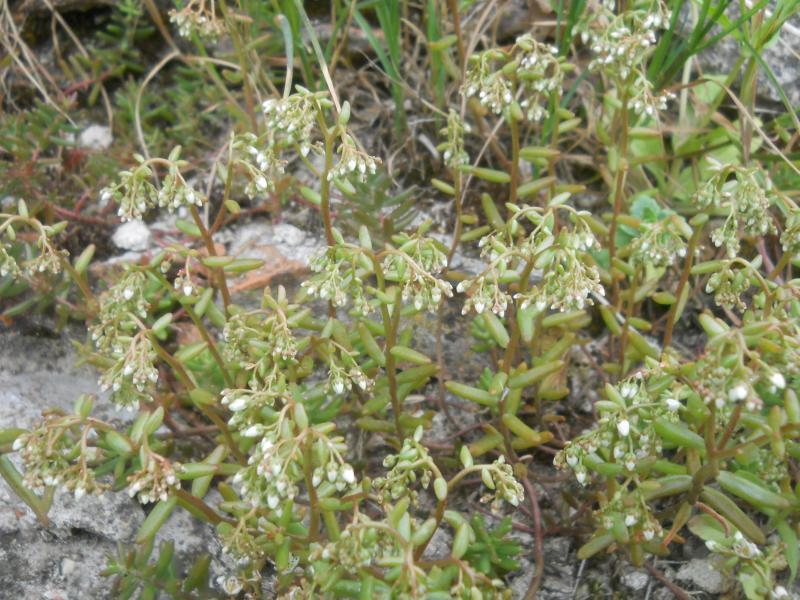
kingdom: Plantae
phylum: Tracheophyta
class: Magnoliopsida
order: Saxifragales
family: Crassulaceae
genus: Sedum
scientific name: Sedum album
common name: White stonecrop
